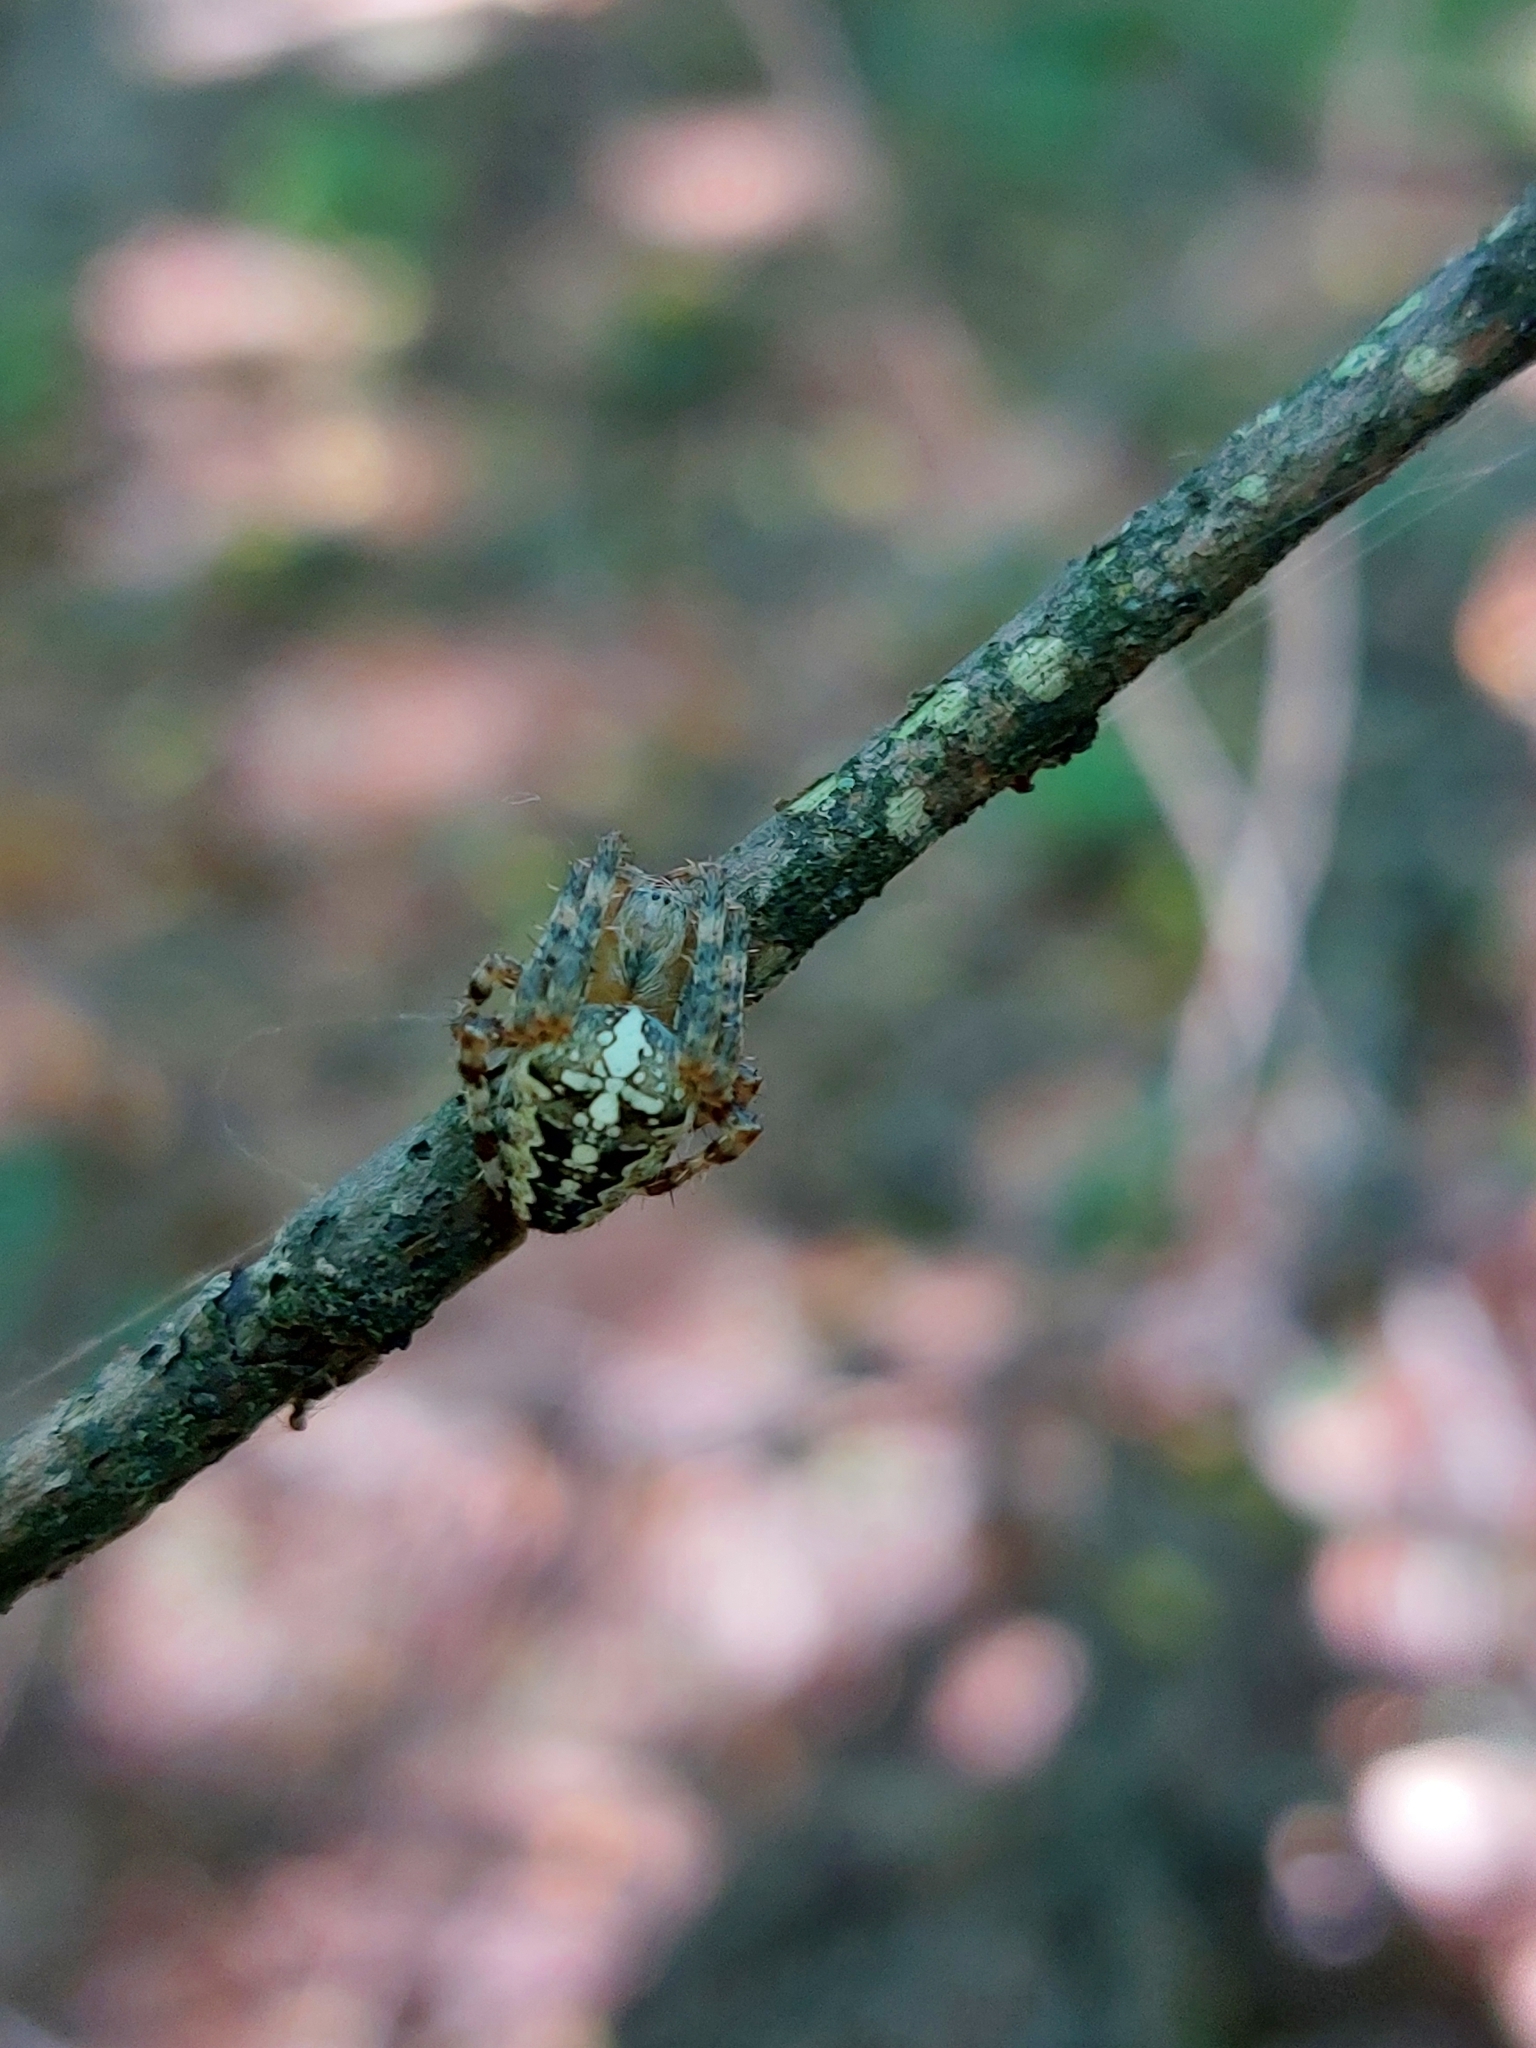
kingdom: Animalia
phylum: Arthropoda
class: Arachnida
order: Araneae
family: Araneidae
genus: Araneus
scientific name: Araneus diadematus
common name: Cross orbweaver
